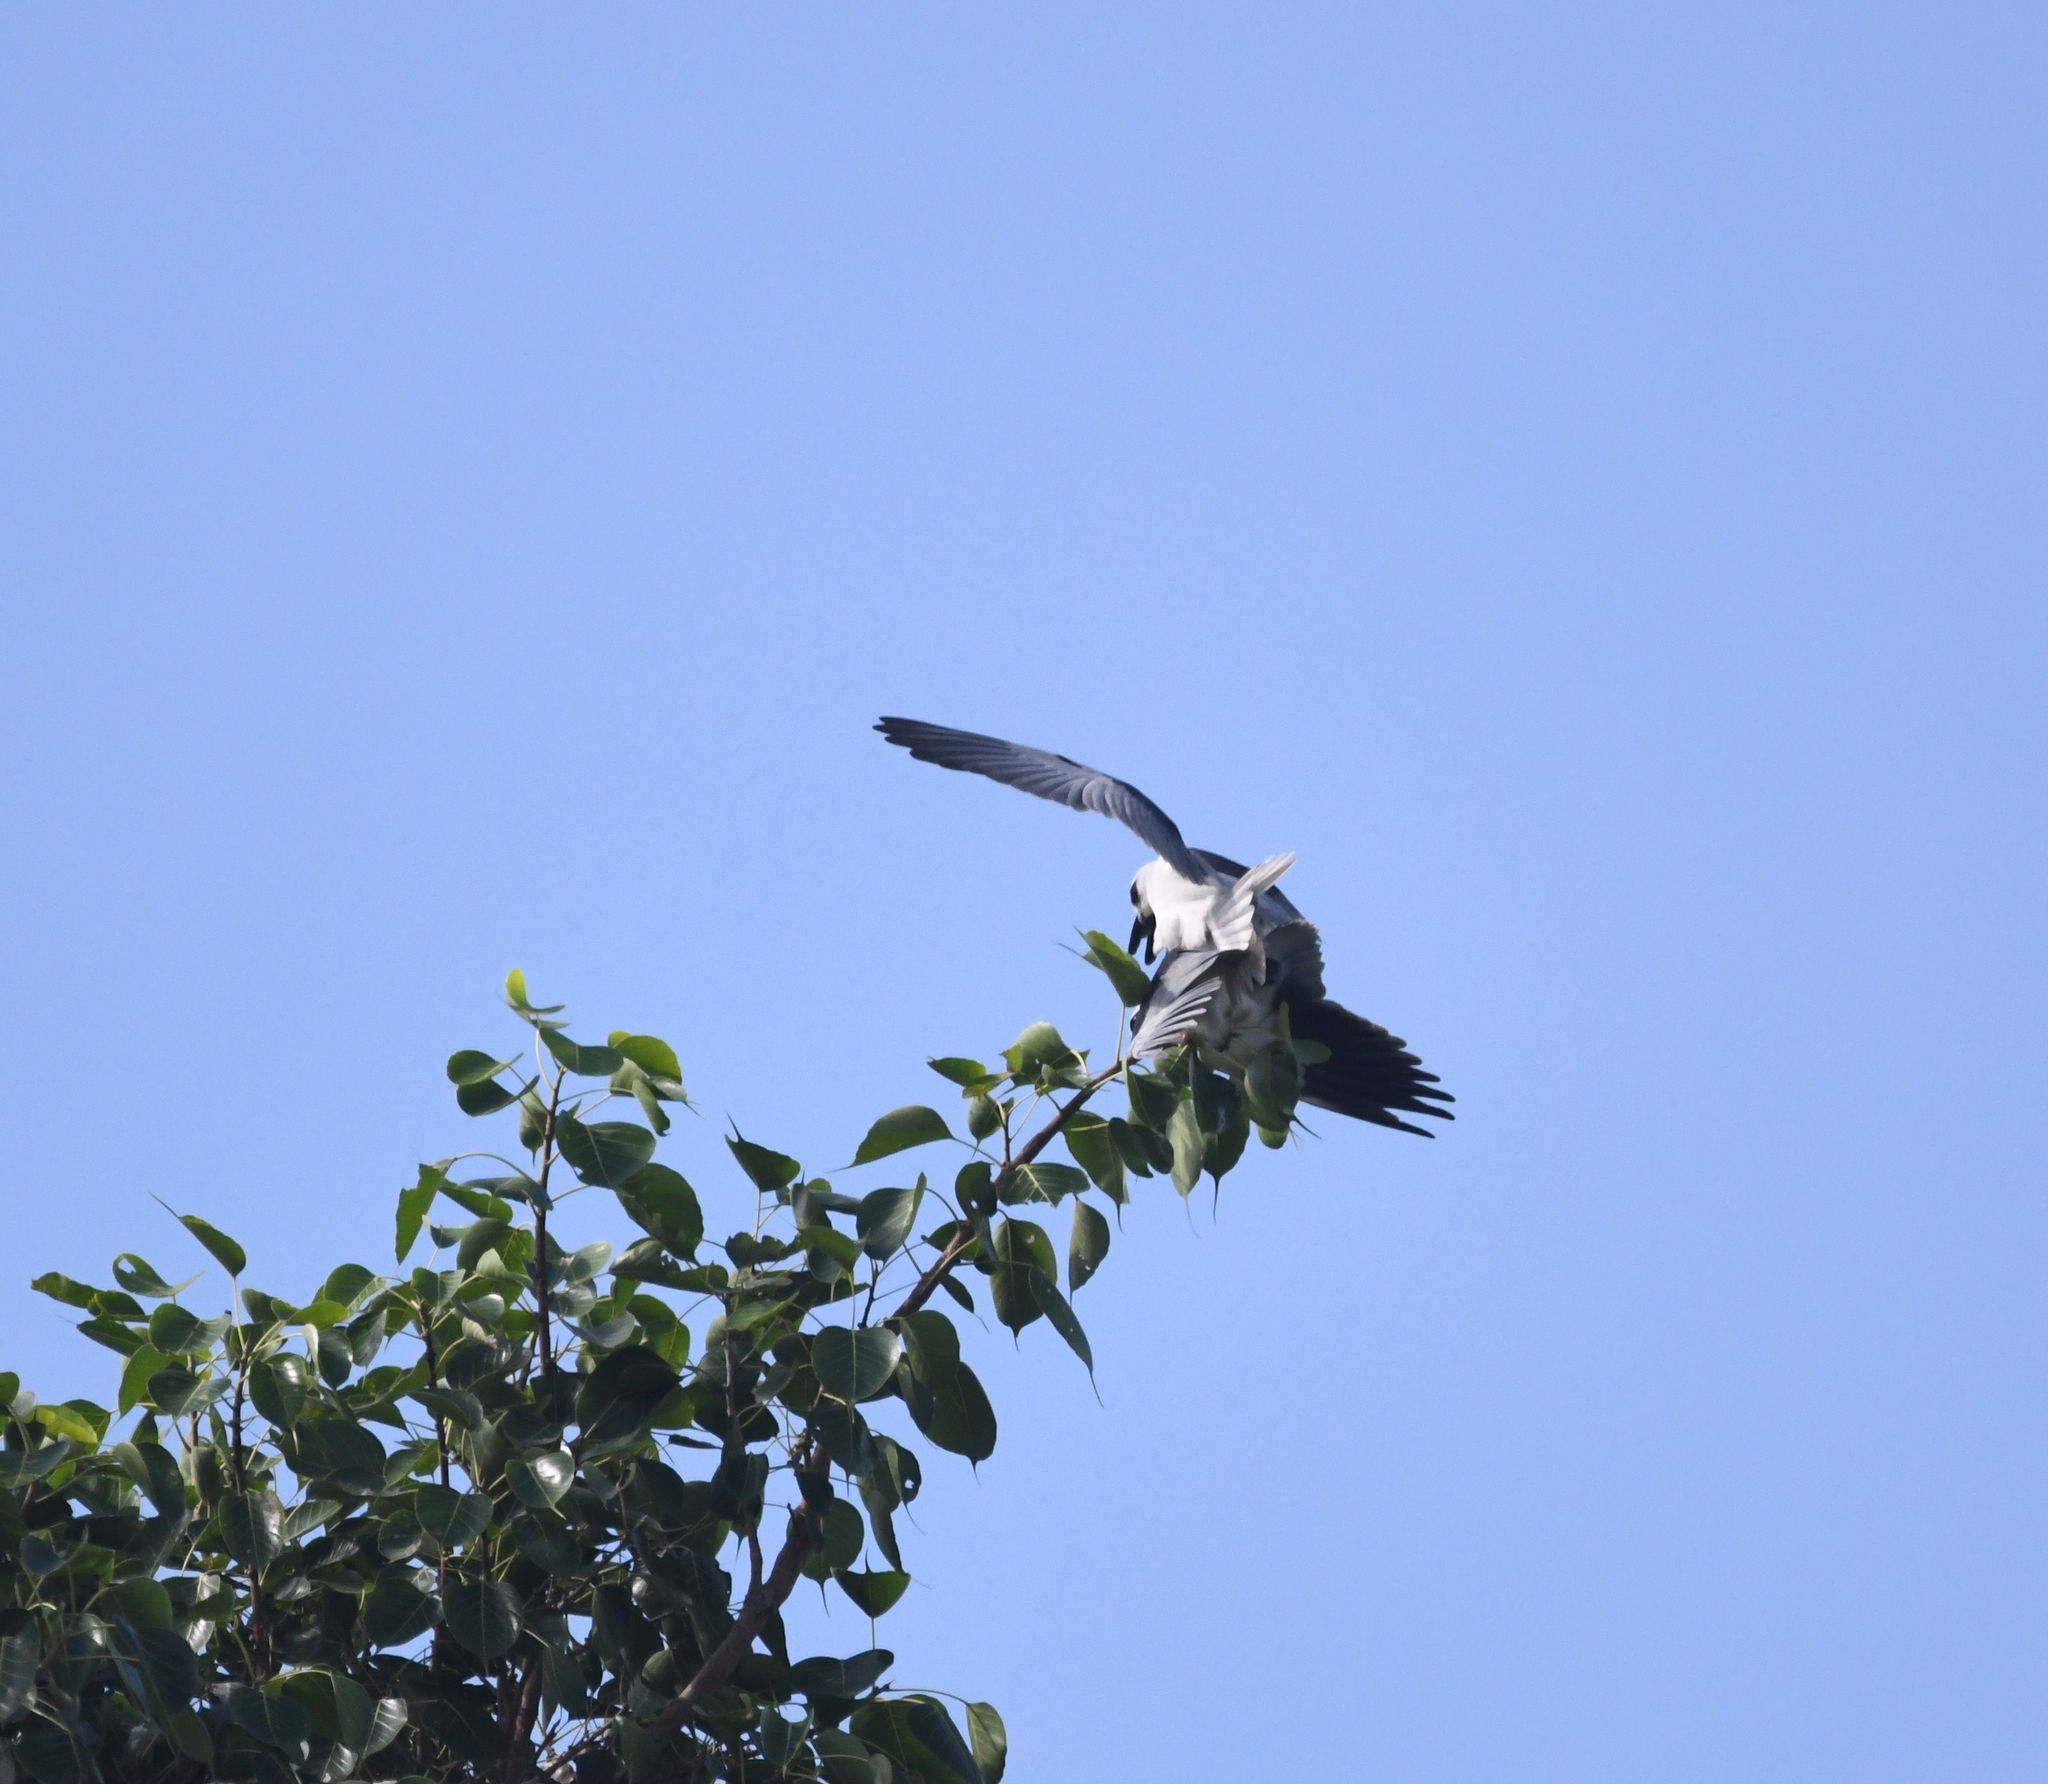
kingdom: Animalia
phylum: Chordata
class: Aves
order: Accipitriformes
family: Accipitridae
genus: Elanus
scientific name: Elanus caeruleus
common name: Black-winged kite
